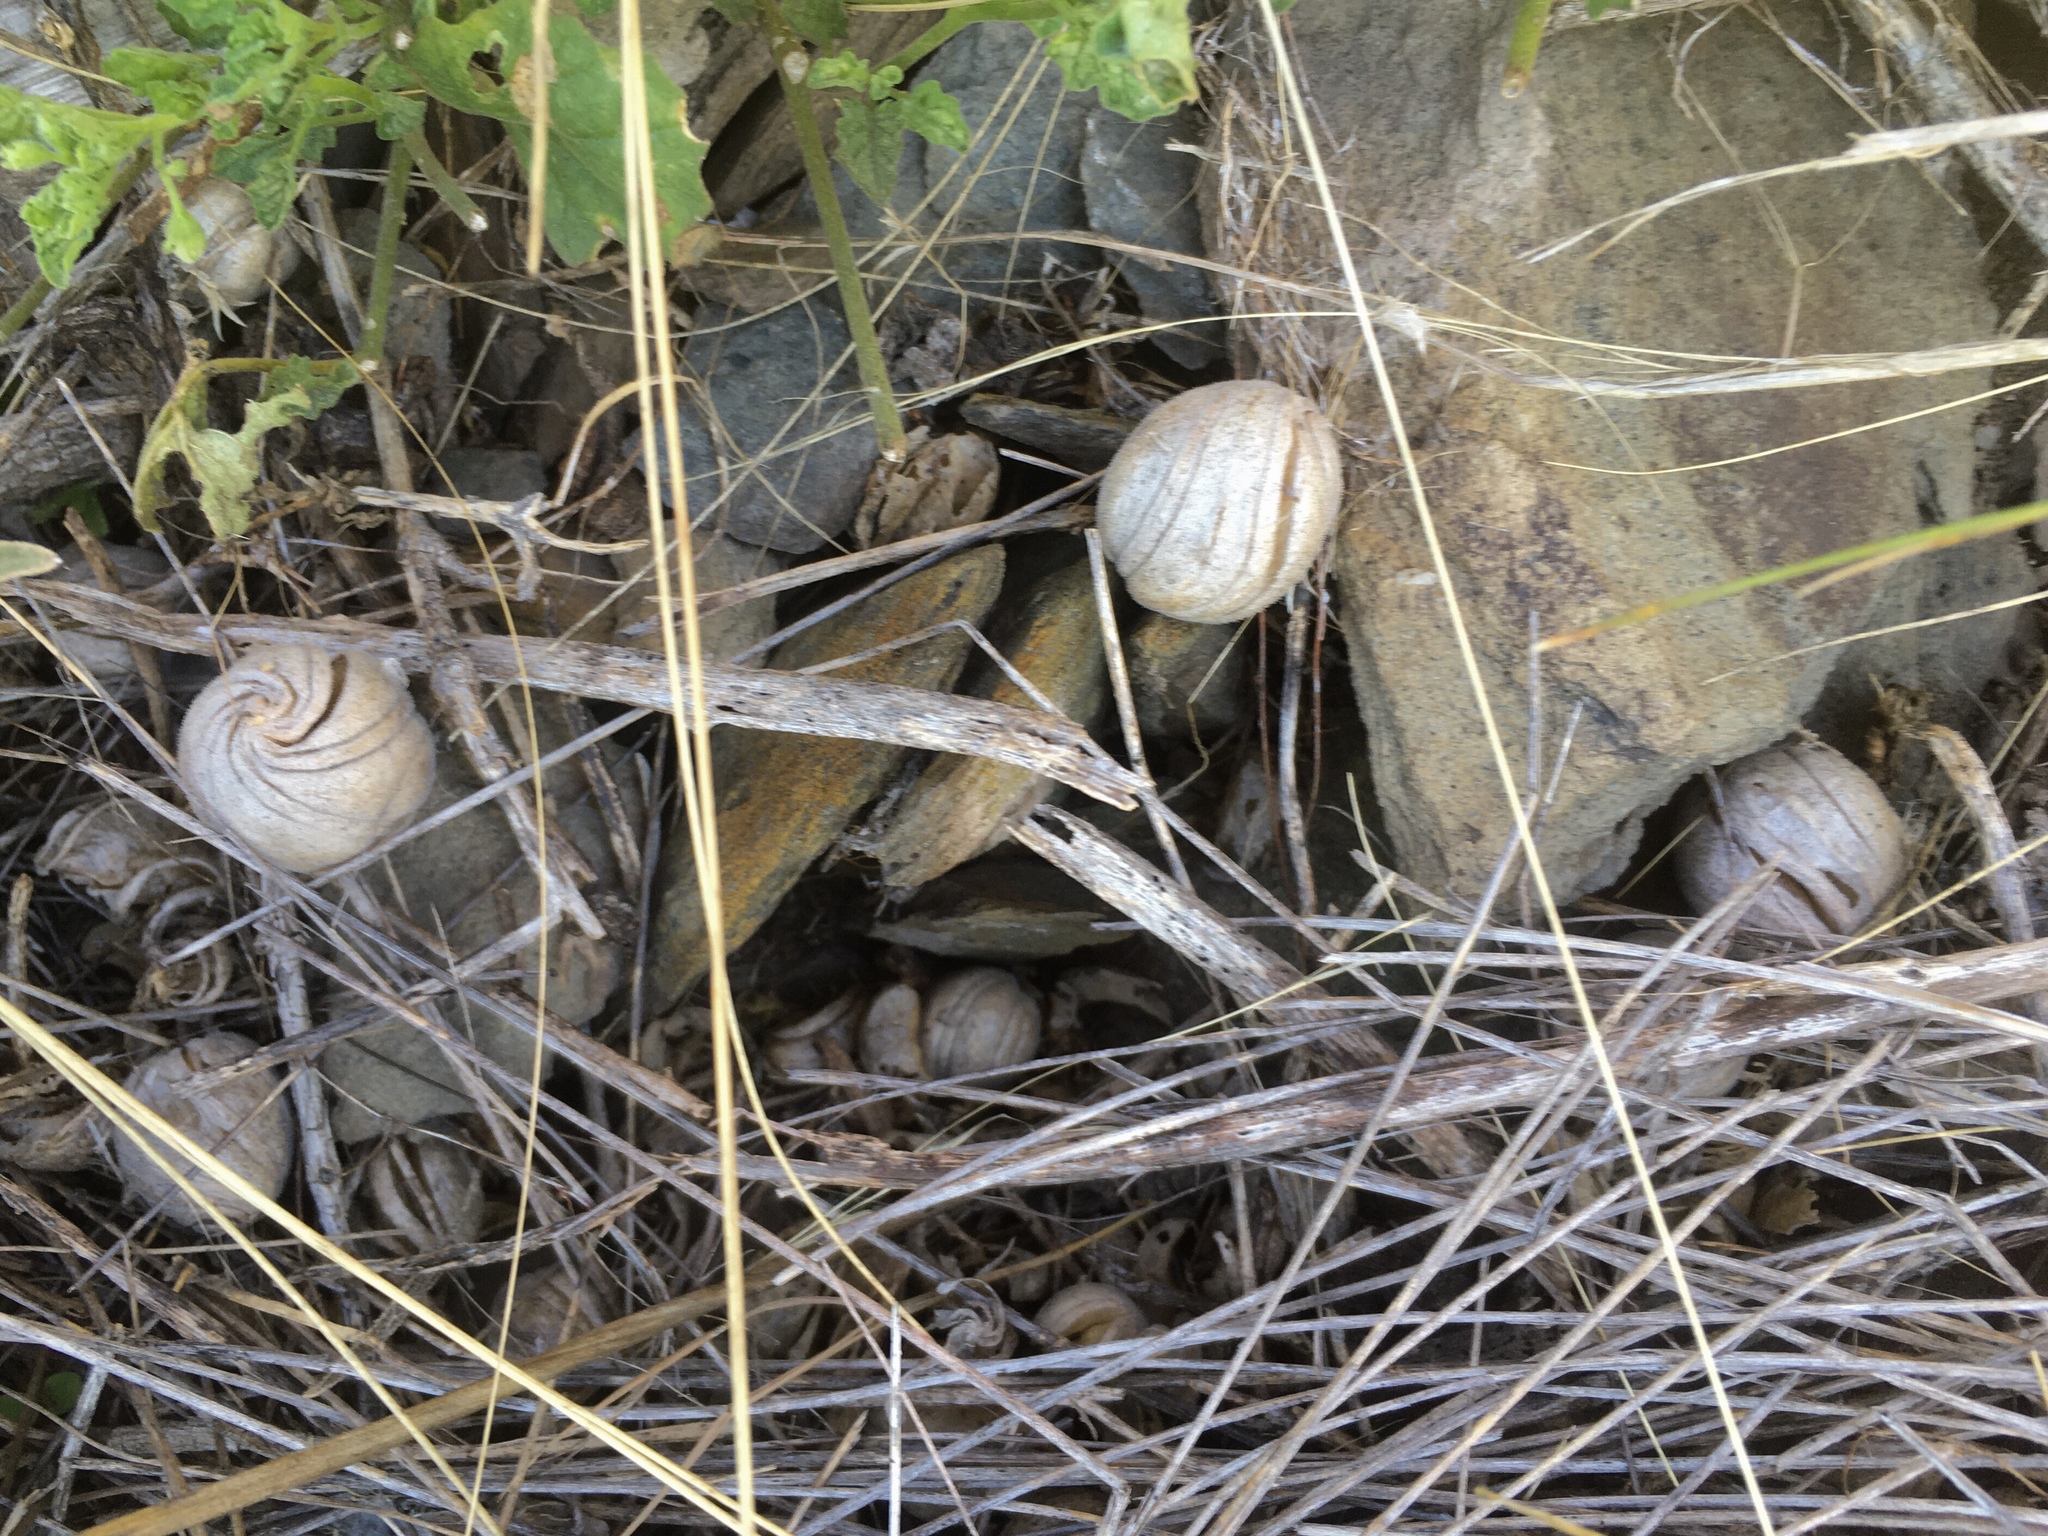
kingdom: Plantae
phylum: Tracheophyta
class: Magnoliopsida
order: Cornales
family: Loasaceae
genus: Blumenbachia
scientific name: Blumenbachia insignis
